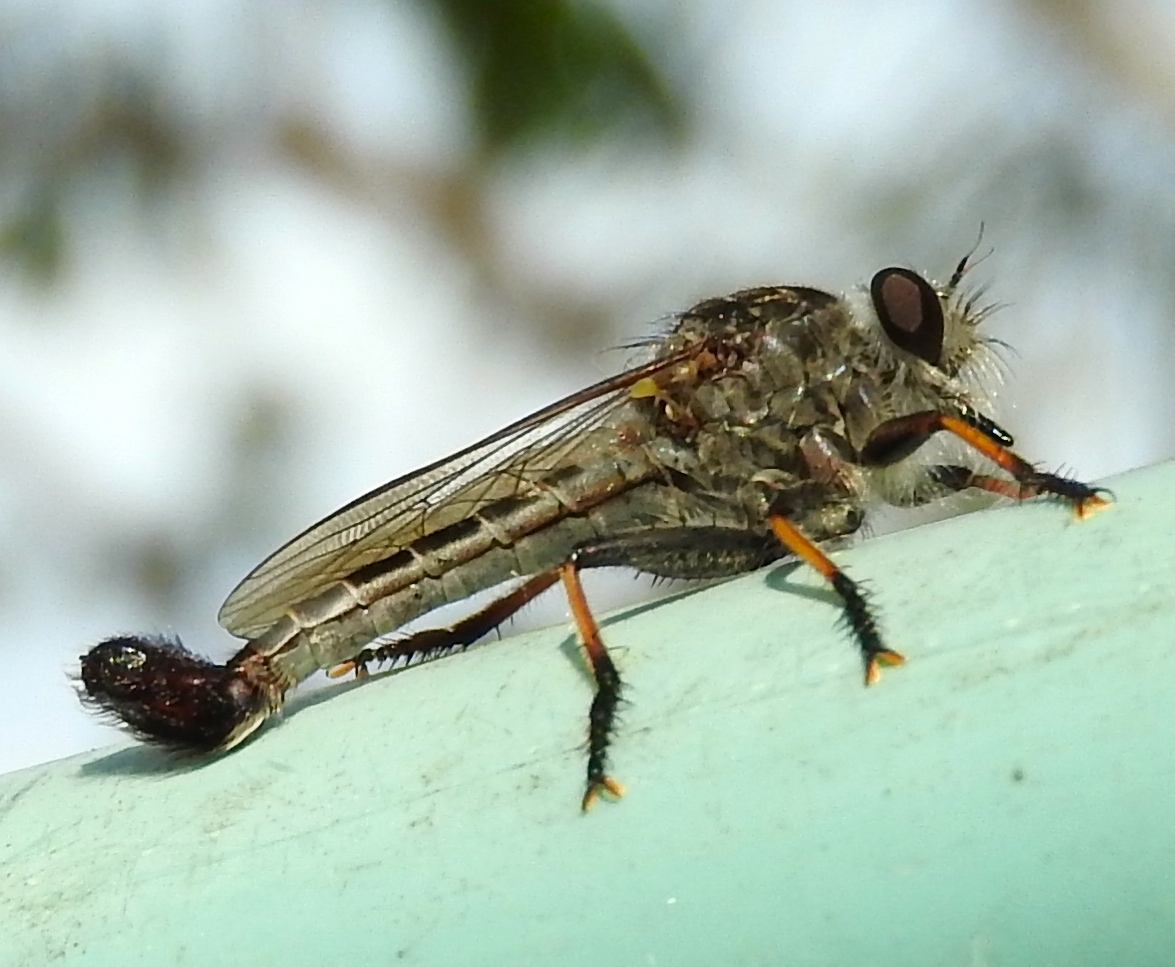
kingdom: Animalia
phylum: Arthropoda
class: Insecta
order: Diptera
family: Asilidae
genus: Efferia
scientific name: Efferia
